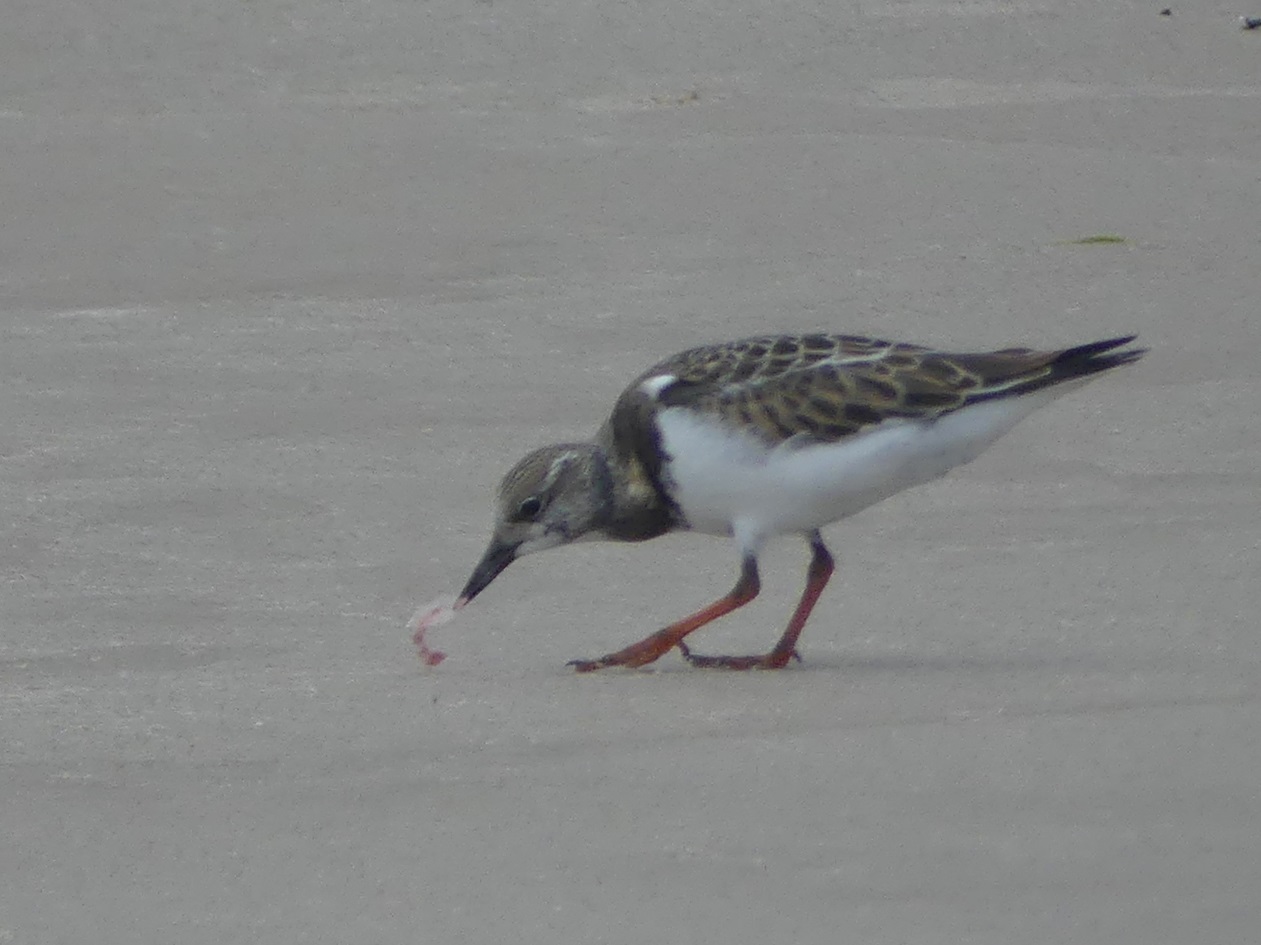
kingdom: Animalia
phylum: Chordata
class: Aves
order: Charadriiformes
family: Scolopacidae
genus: Arenaria
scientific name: Arenaria interpres
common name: Ruddy turnstone
